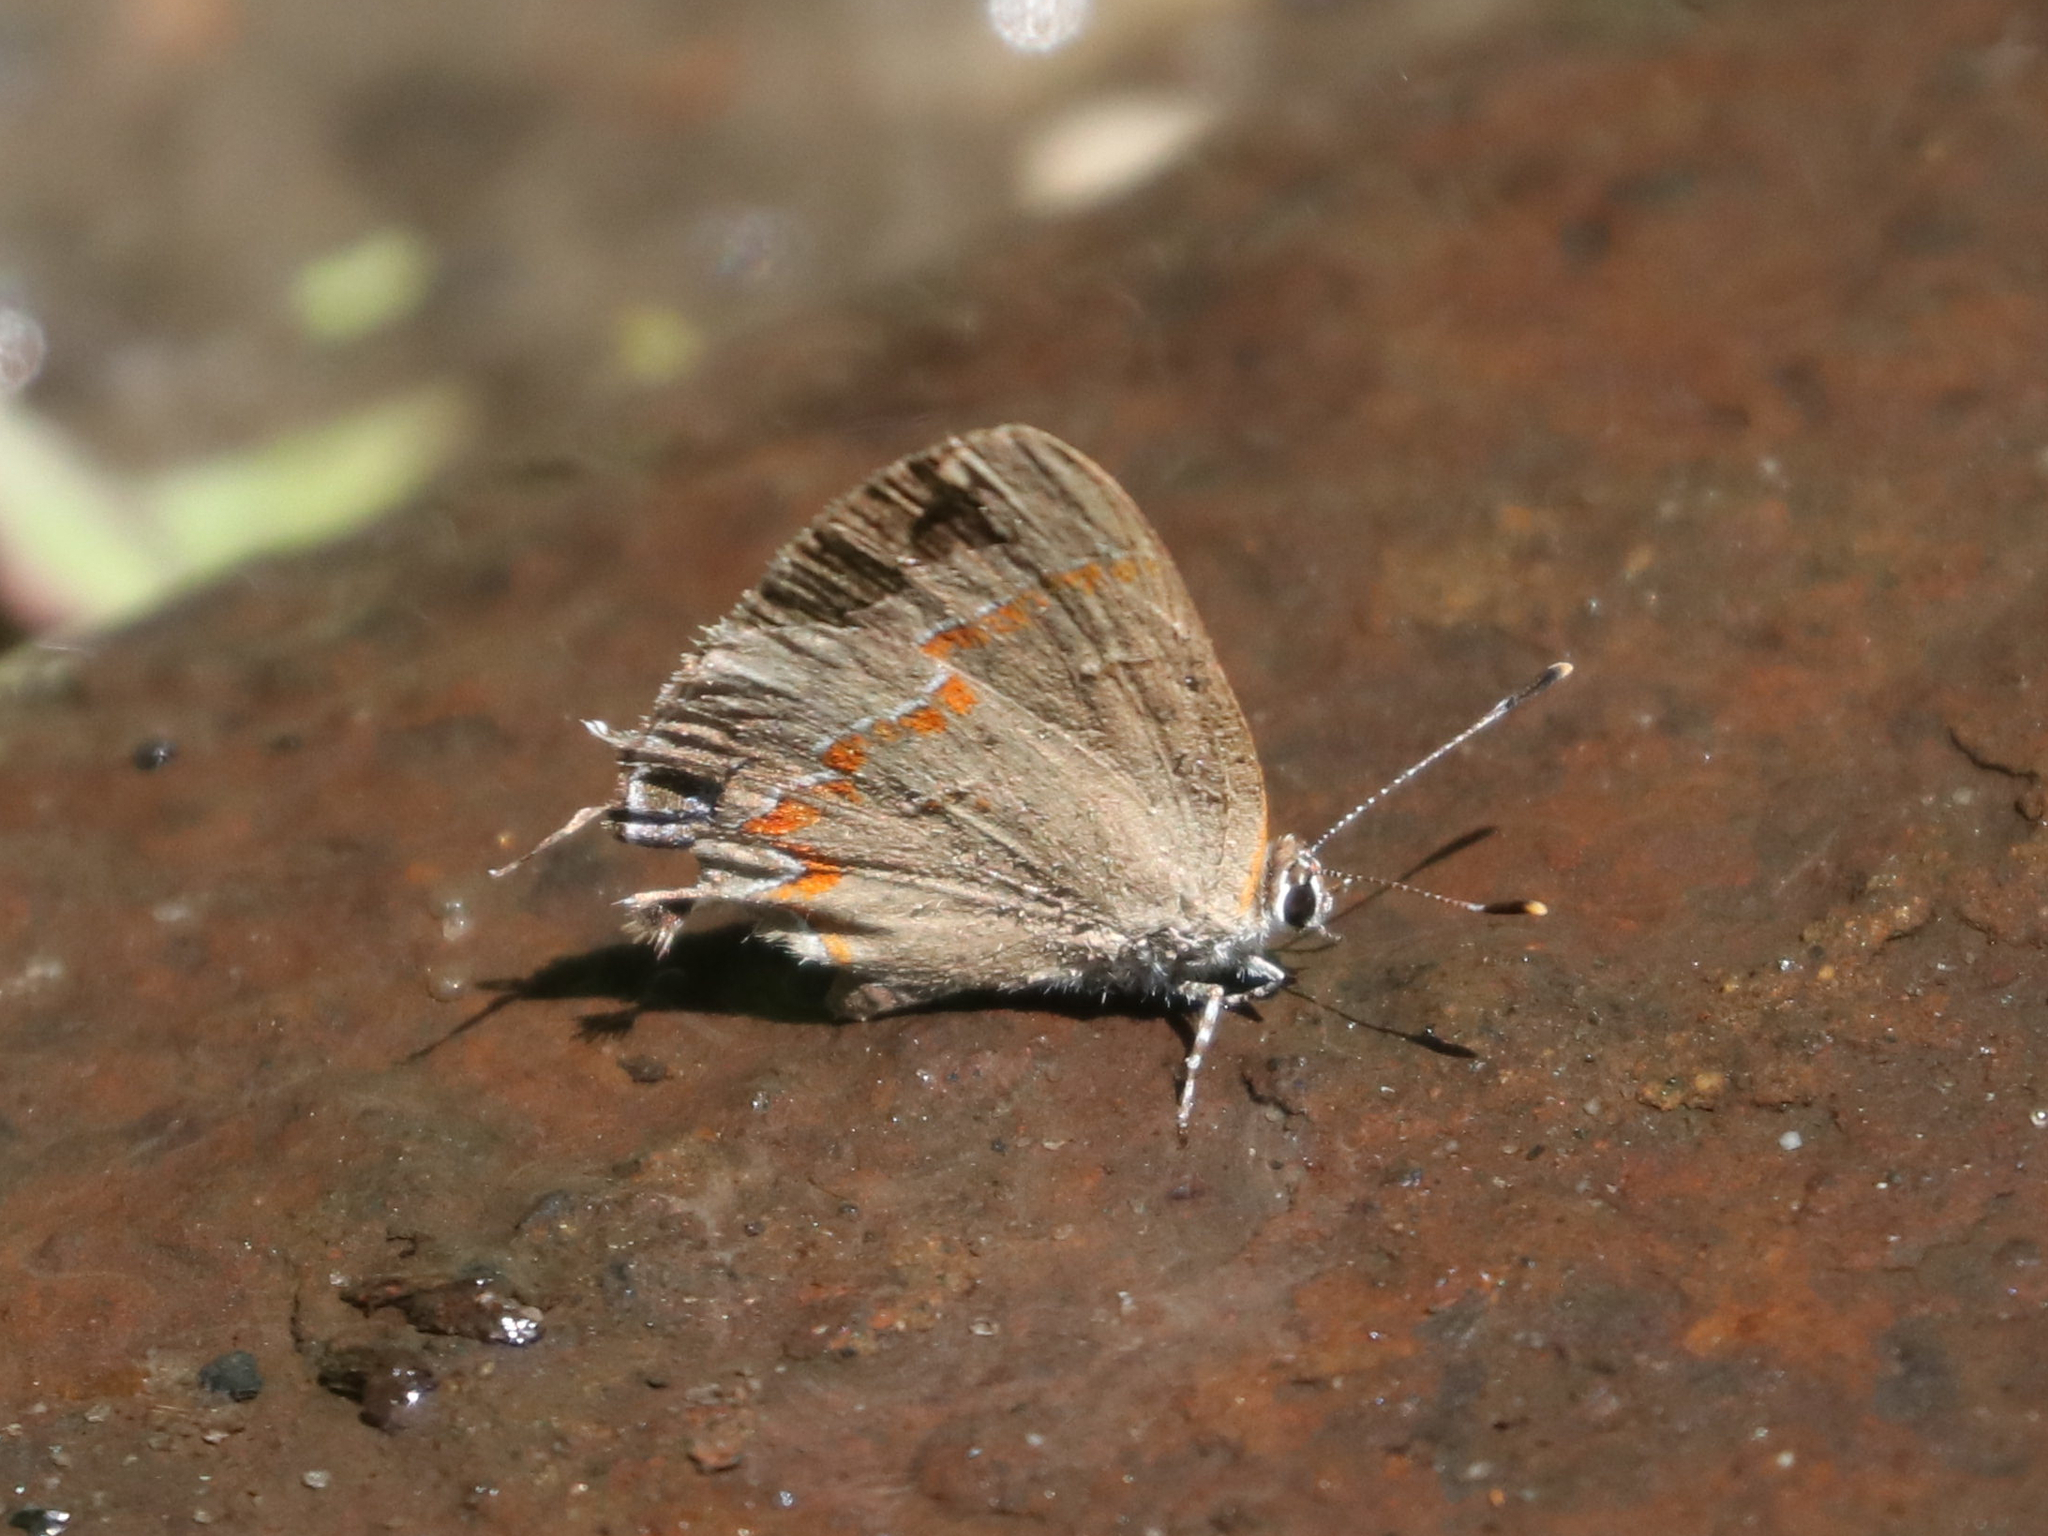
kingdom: Animalia
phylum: Arthropoda
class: Insecta
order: Lepidoptera
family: Lycaenidae
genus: Calycopis
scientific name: Calycopis cecrops
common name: Red-banded hairstreak
